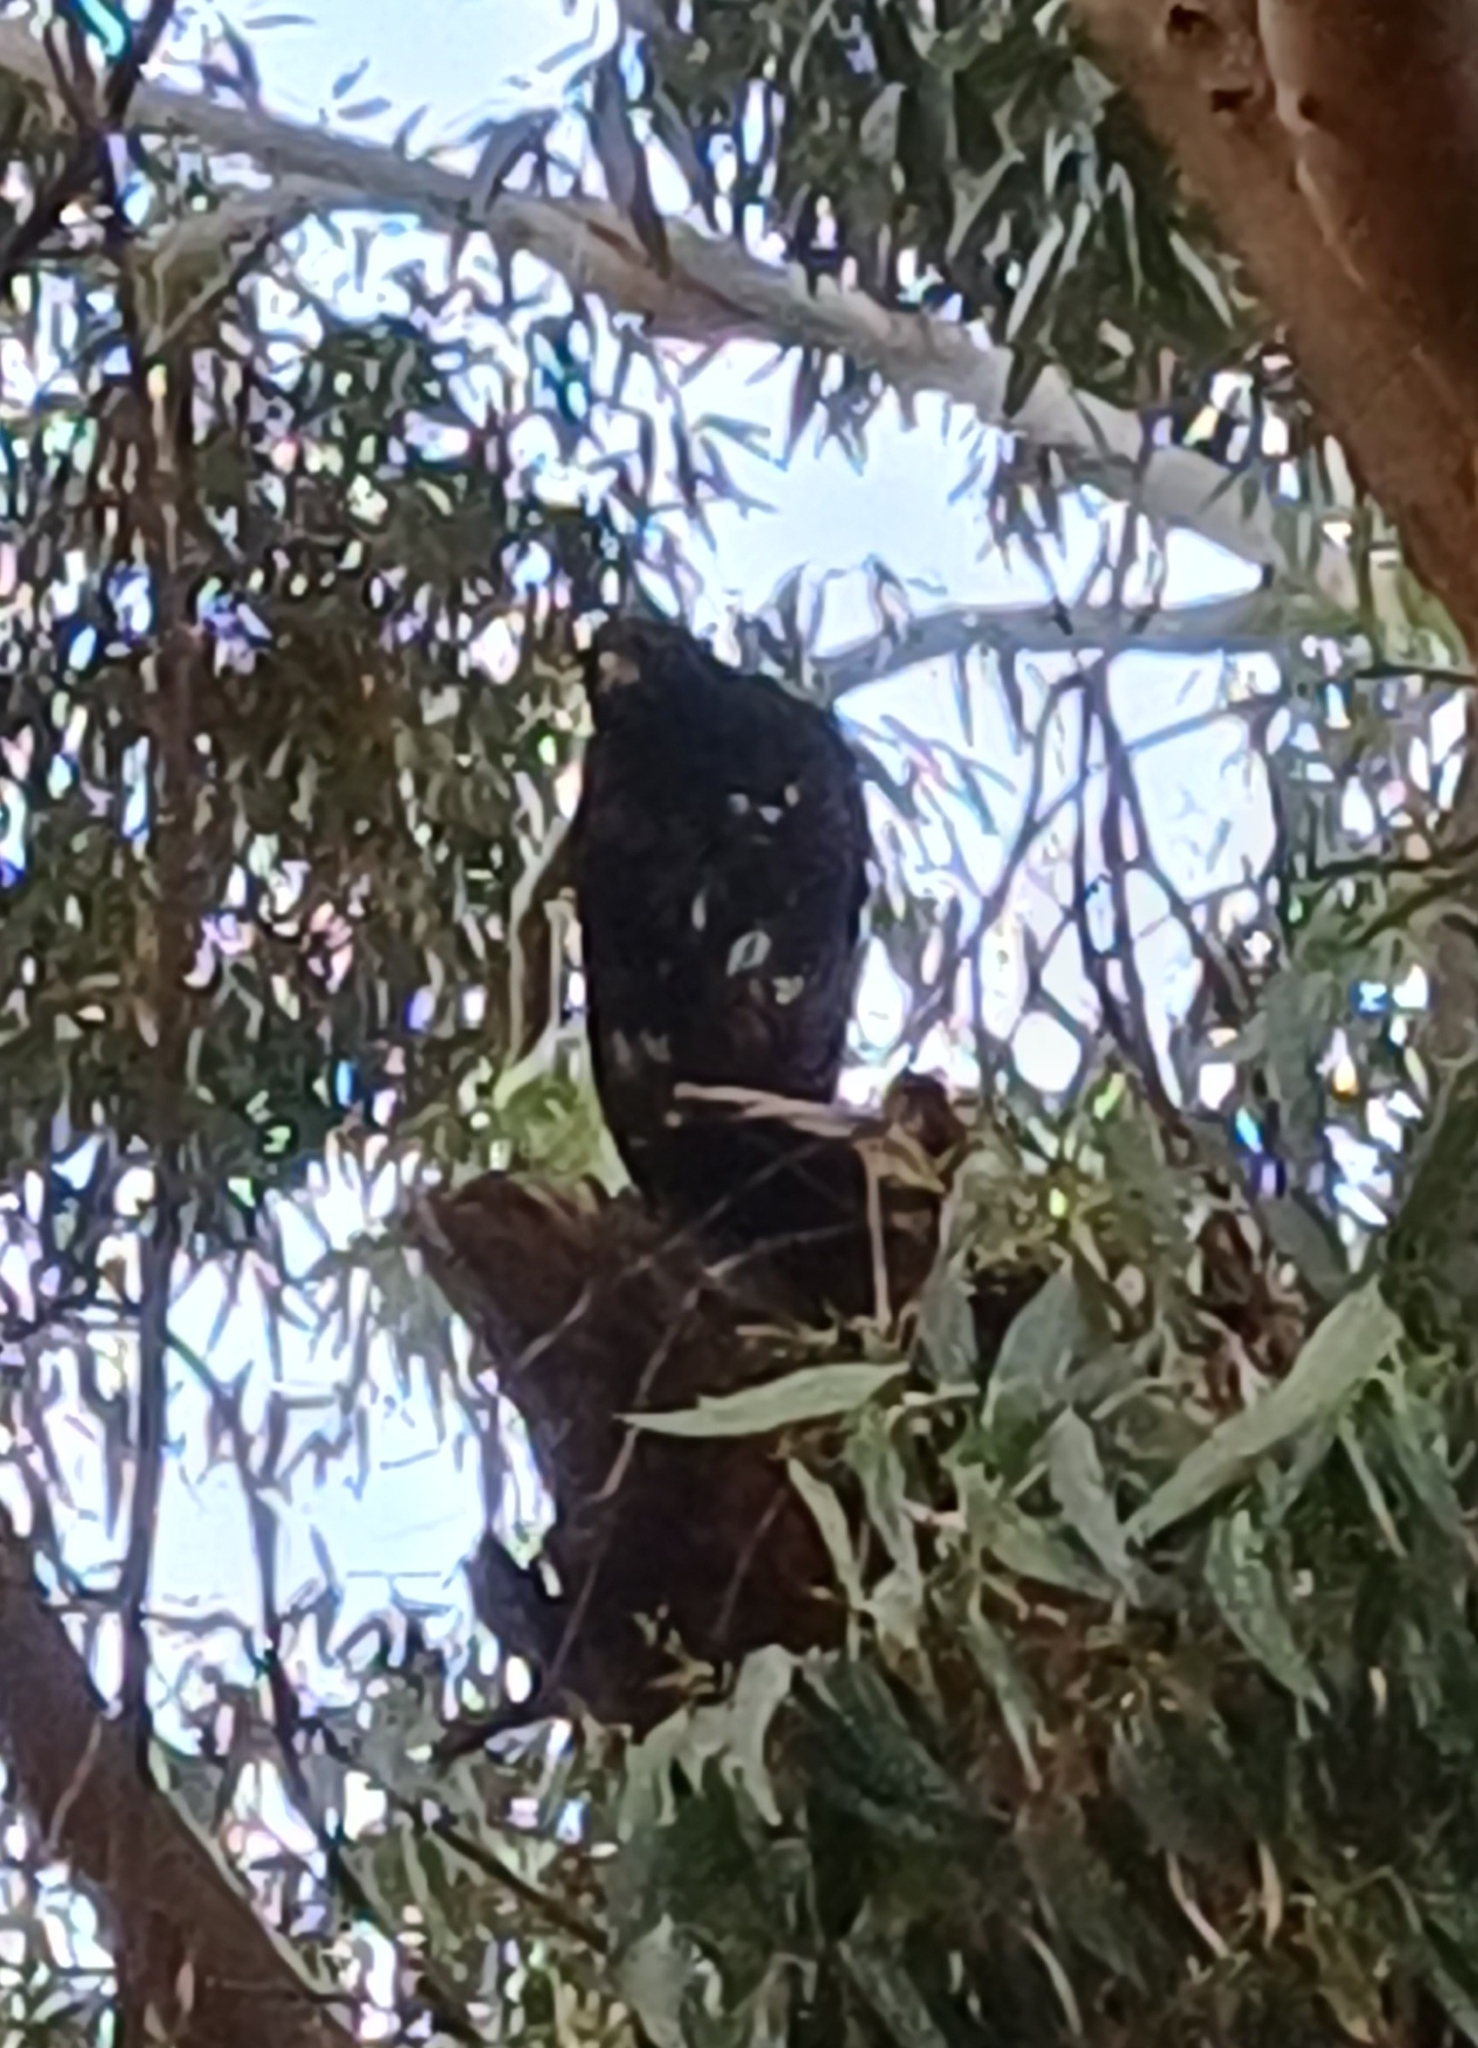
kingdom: Animalia
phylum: Chordata
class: Aves
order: Accipitriformes
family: Accipitridae
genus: Accipiter
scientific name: Accipiter melanoleucus
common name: Black sparrowhawk
